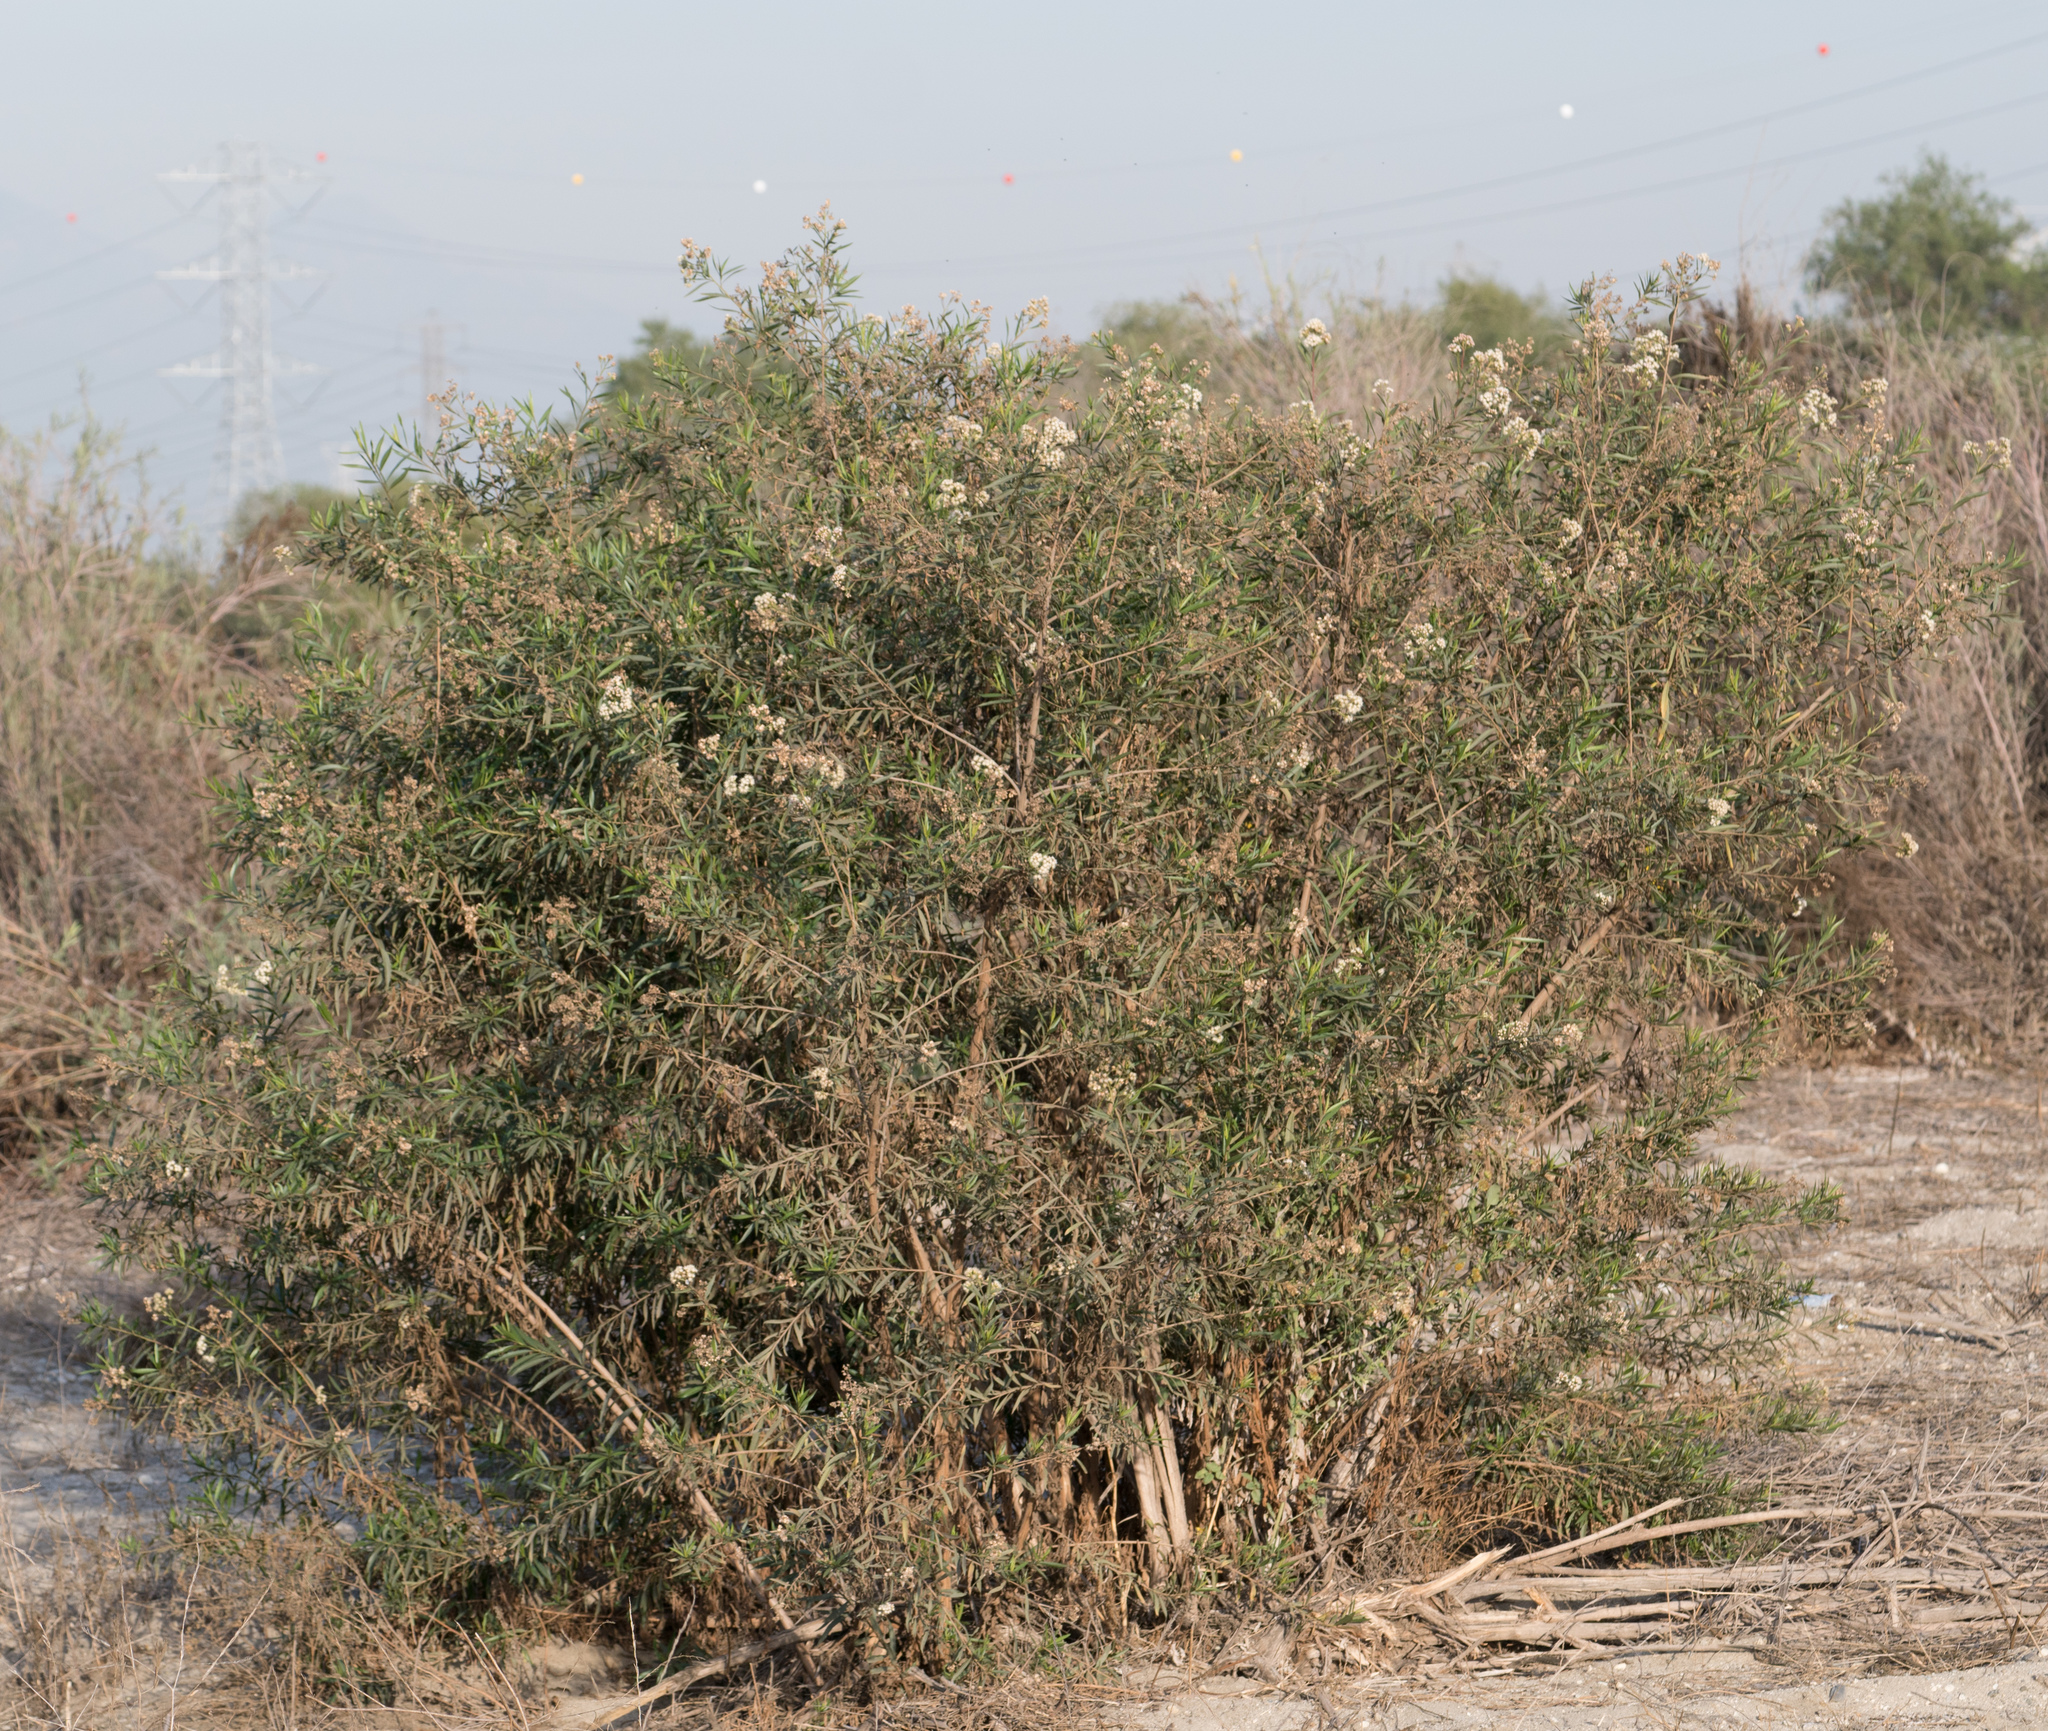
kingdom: Plantae
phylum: Tracheophyta
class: Magnoliopsida
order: Asterales
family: Asteraceae
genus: Baccharis
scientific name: Baccharis salicifolia
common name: Sticky baccharis
